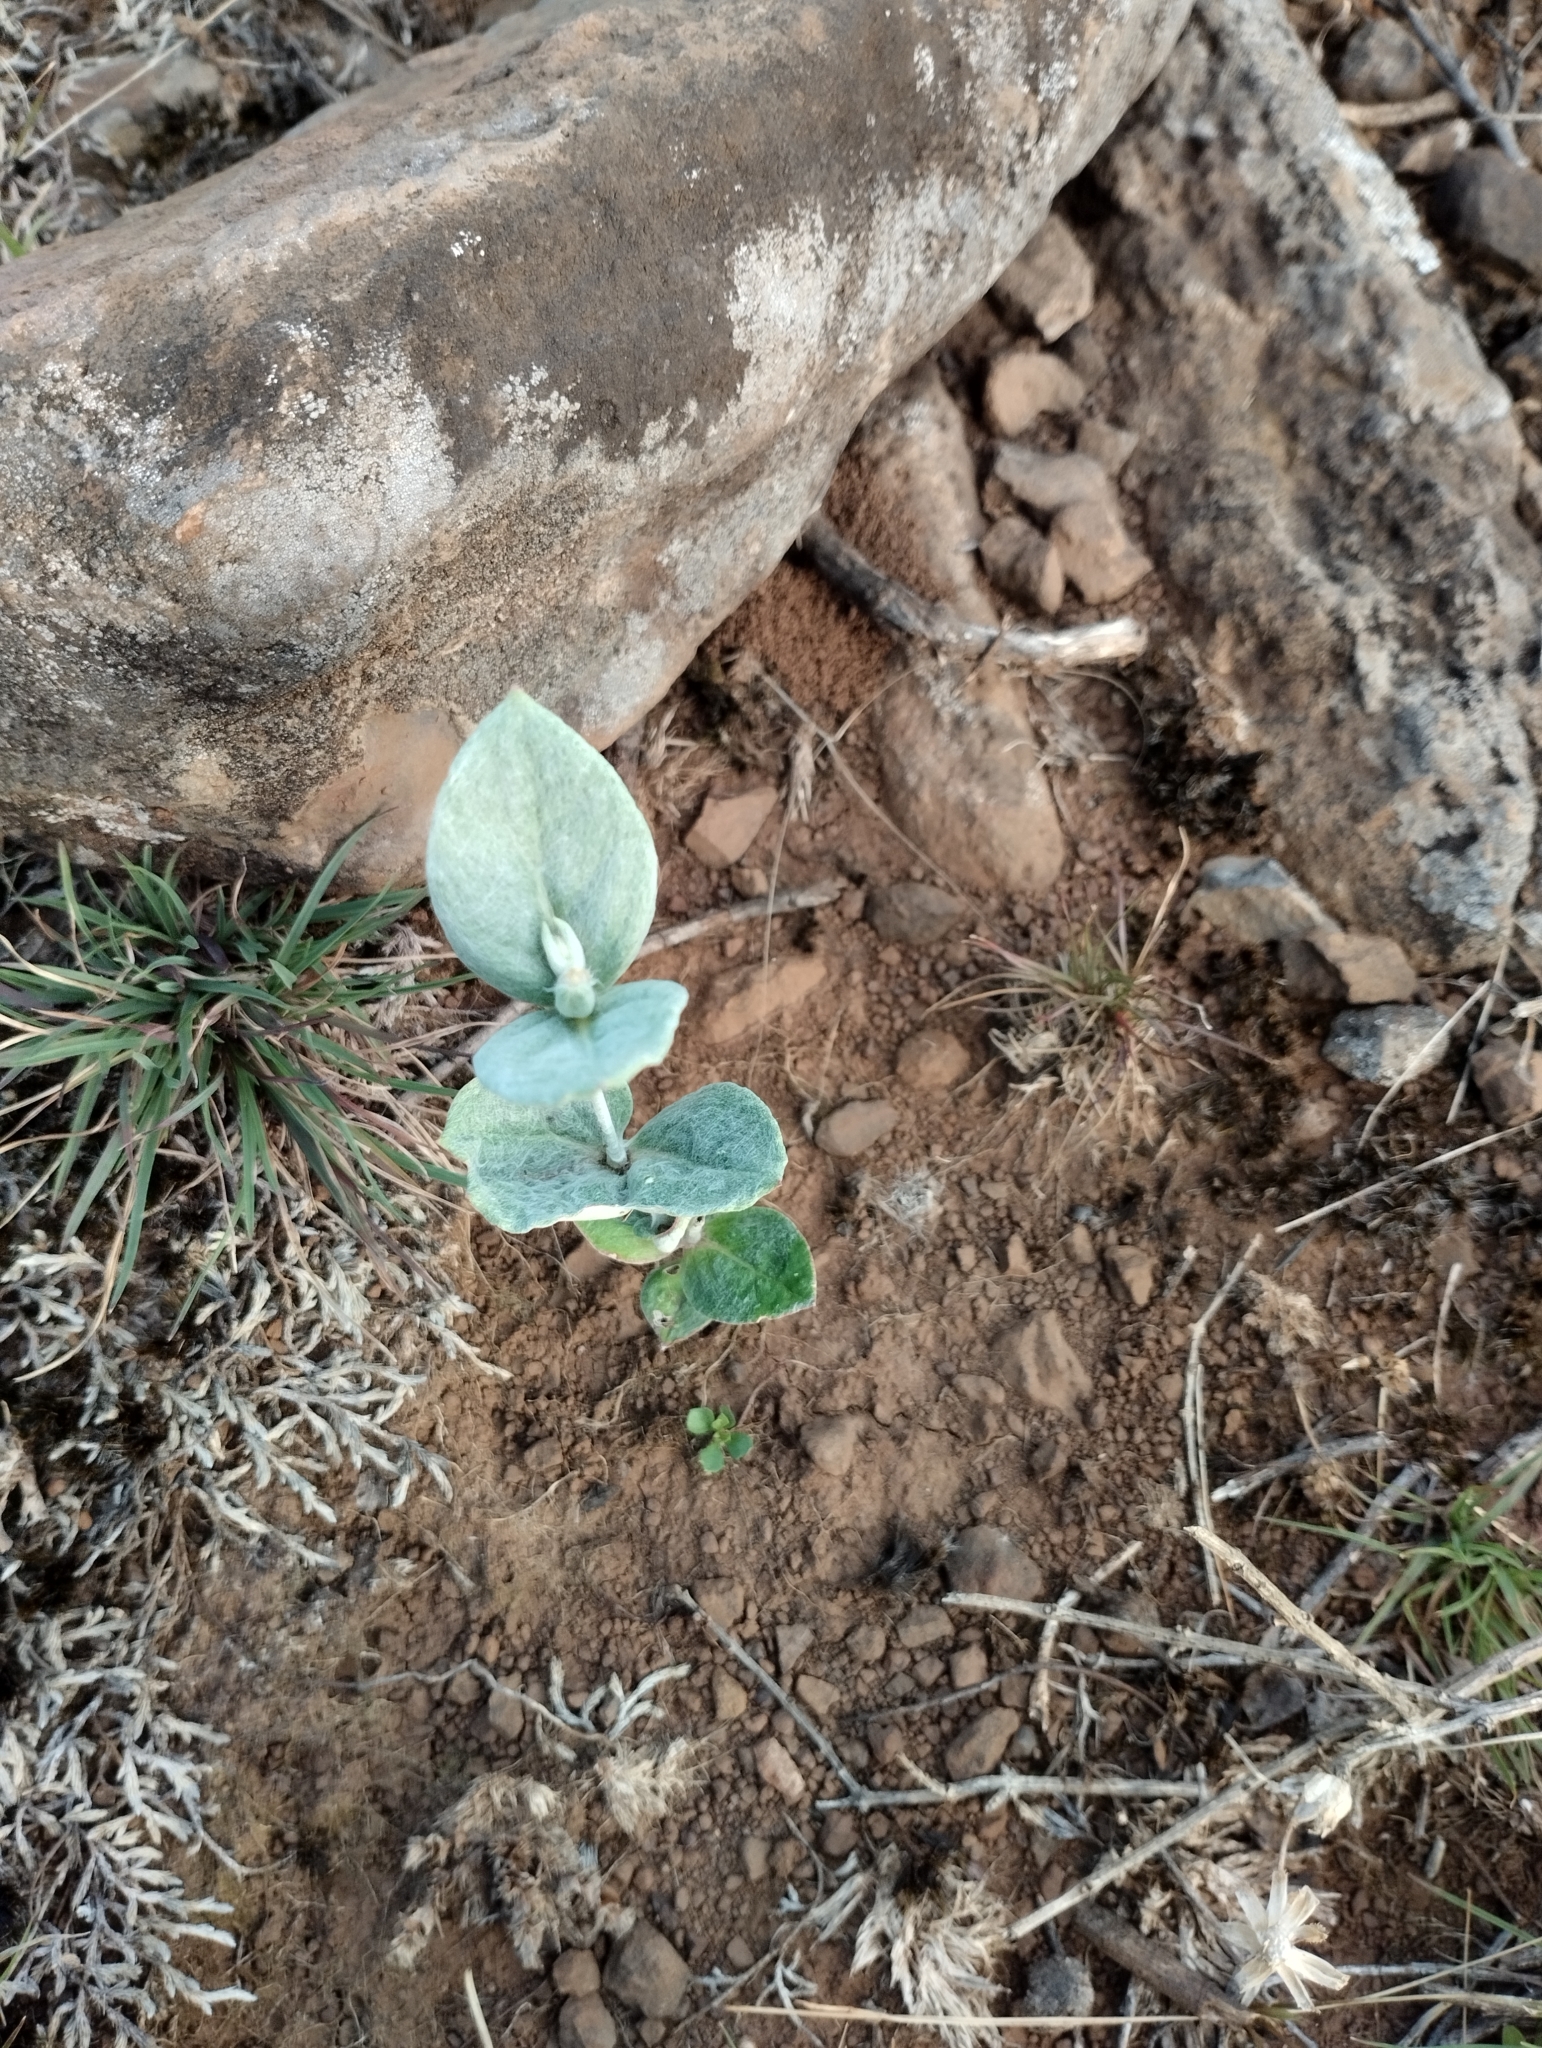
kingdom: Plantae
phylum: Tracheophyta
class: Magnoliopsida
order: Caryophyllales
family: Amaranthaceae
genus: Pfaffia
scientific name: Pfaffia gnaphalioides
